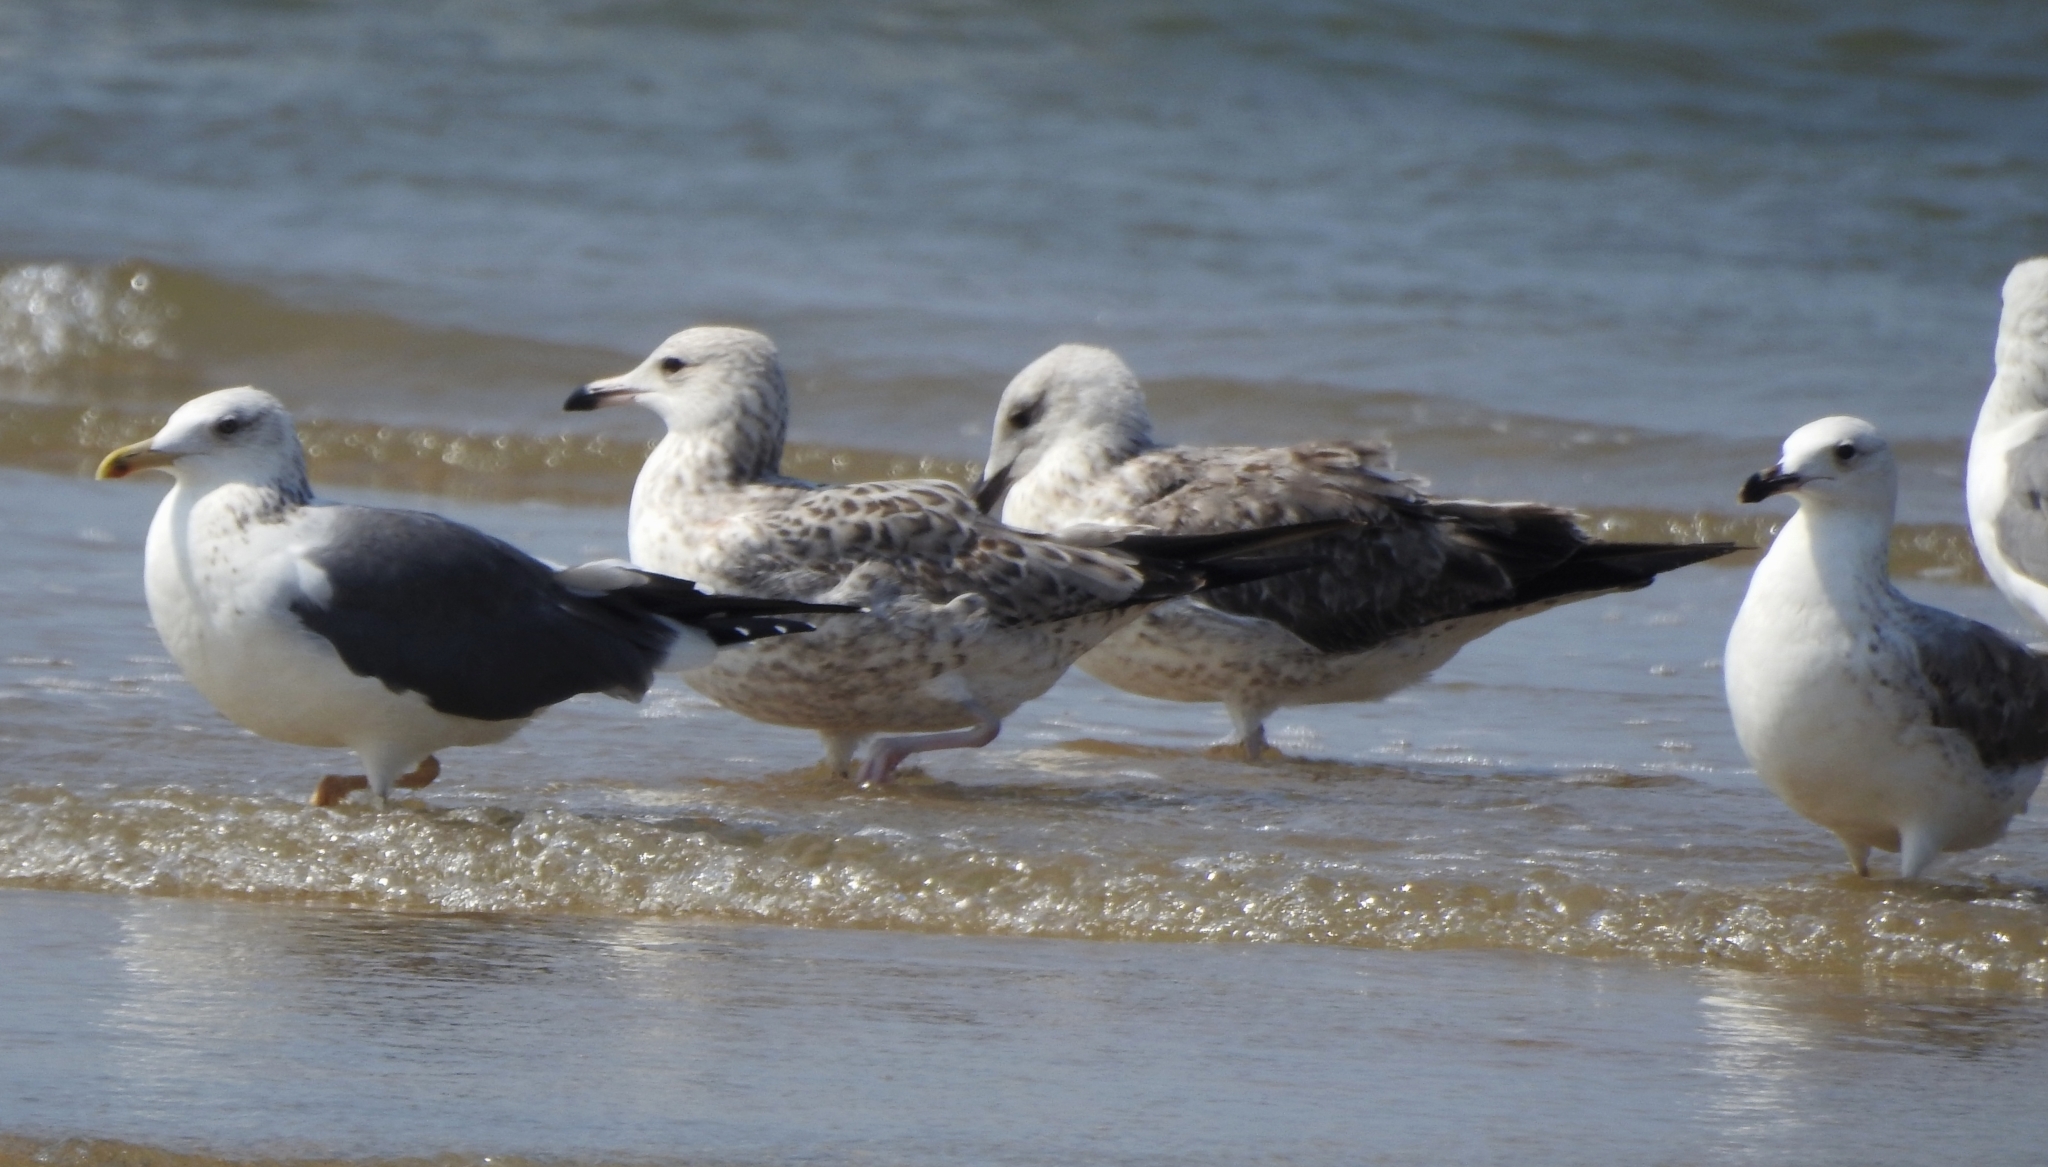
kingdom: Animalia
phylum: Chordata
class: Aves
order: Charadriiformes
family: Laridae
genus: Larus
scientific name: Larus fuscus
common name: Lesser black-backed gull
